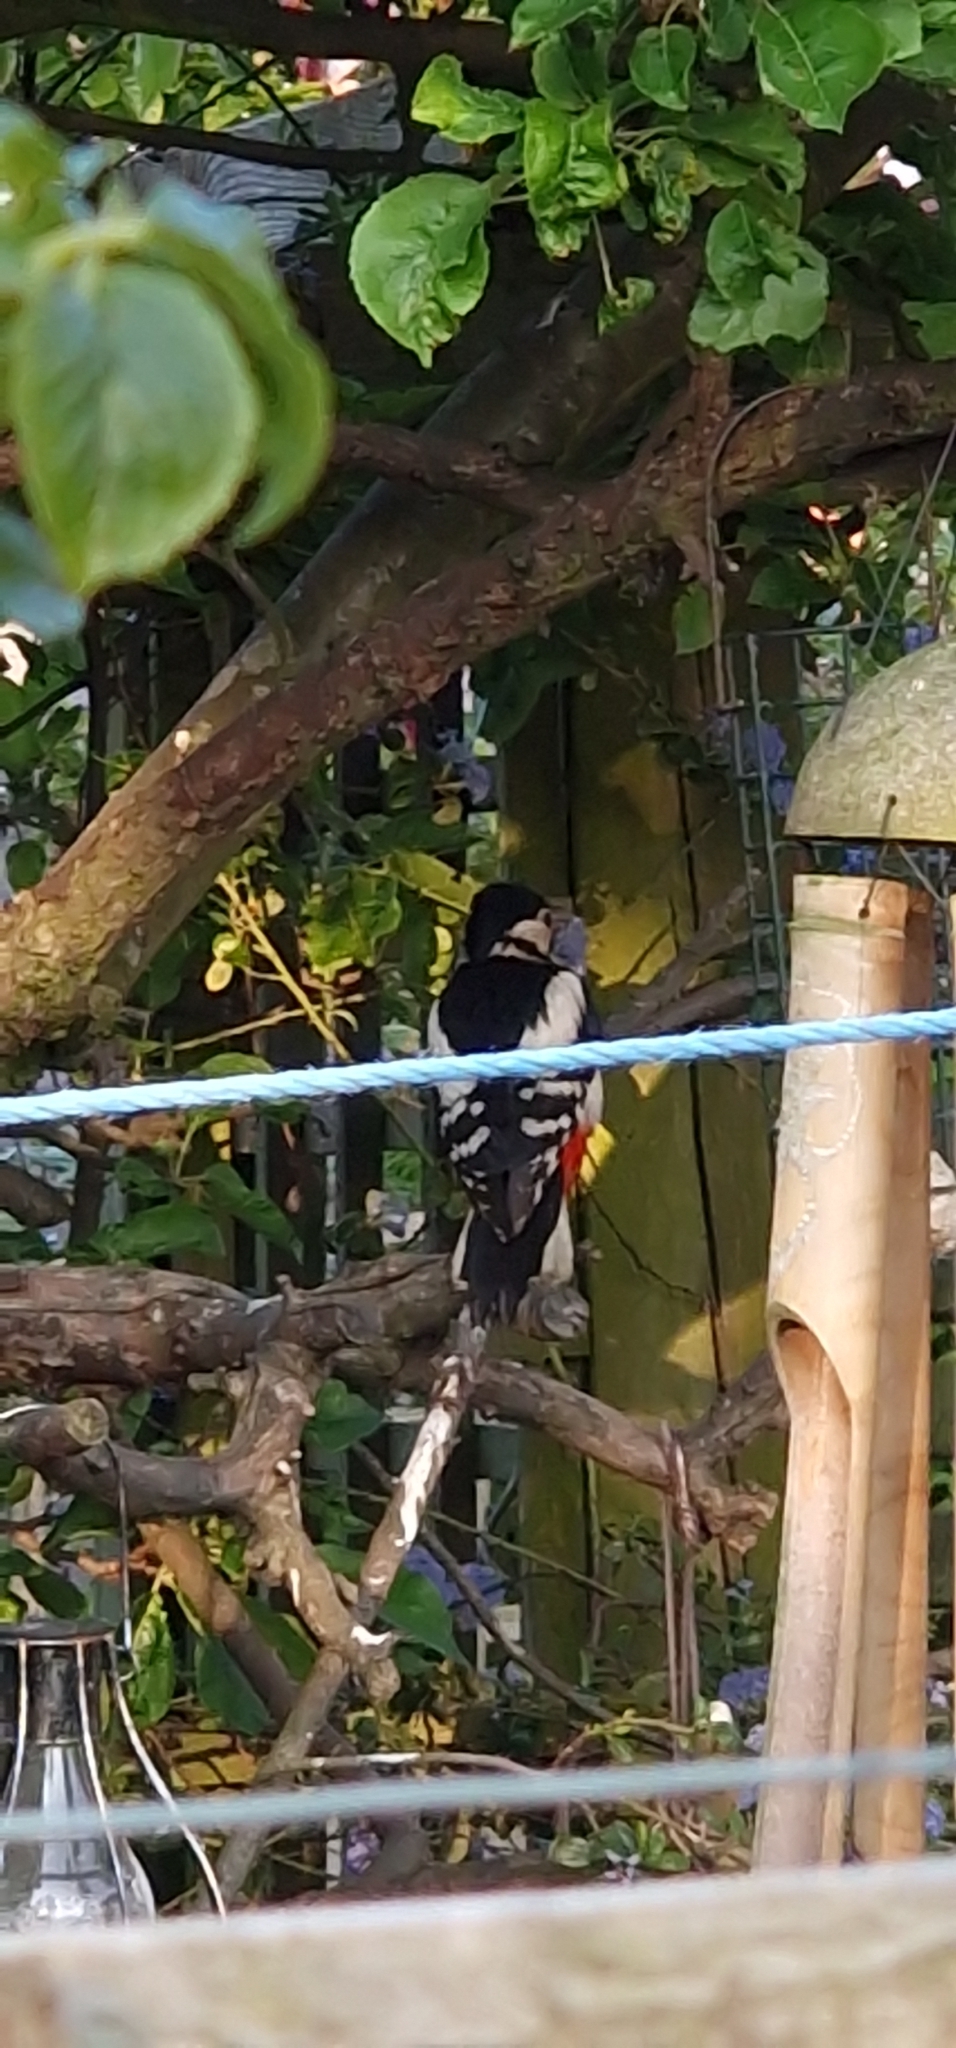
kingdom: Animalia
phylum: Chordata
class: Aves
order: Piciformes
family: Picidae
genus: Dendrocopos
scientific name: Dendrocopos major
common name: Great spotted woodpecker
